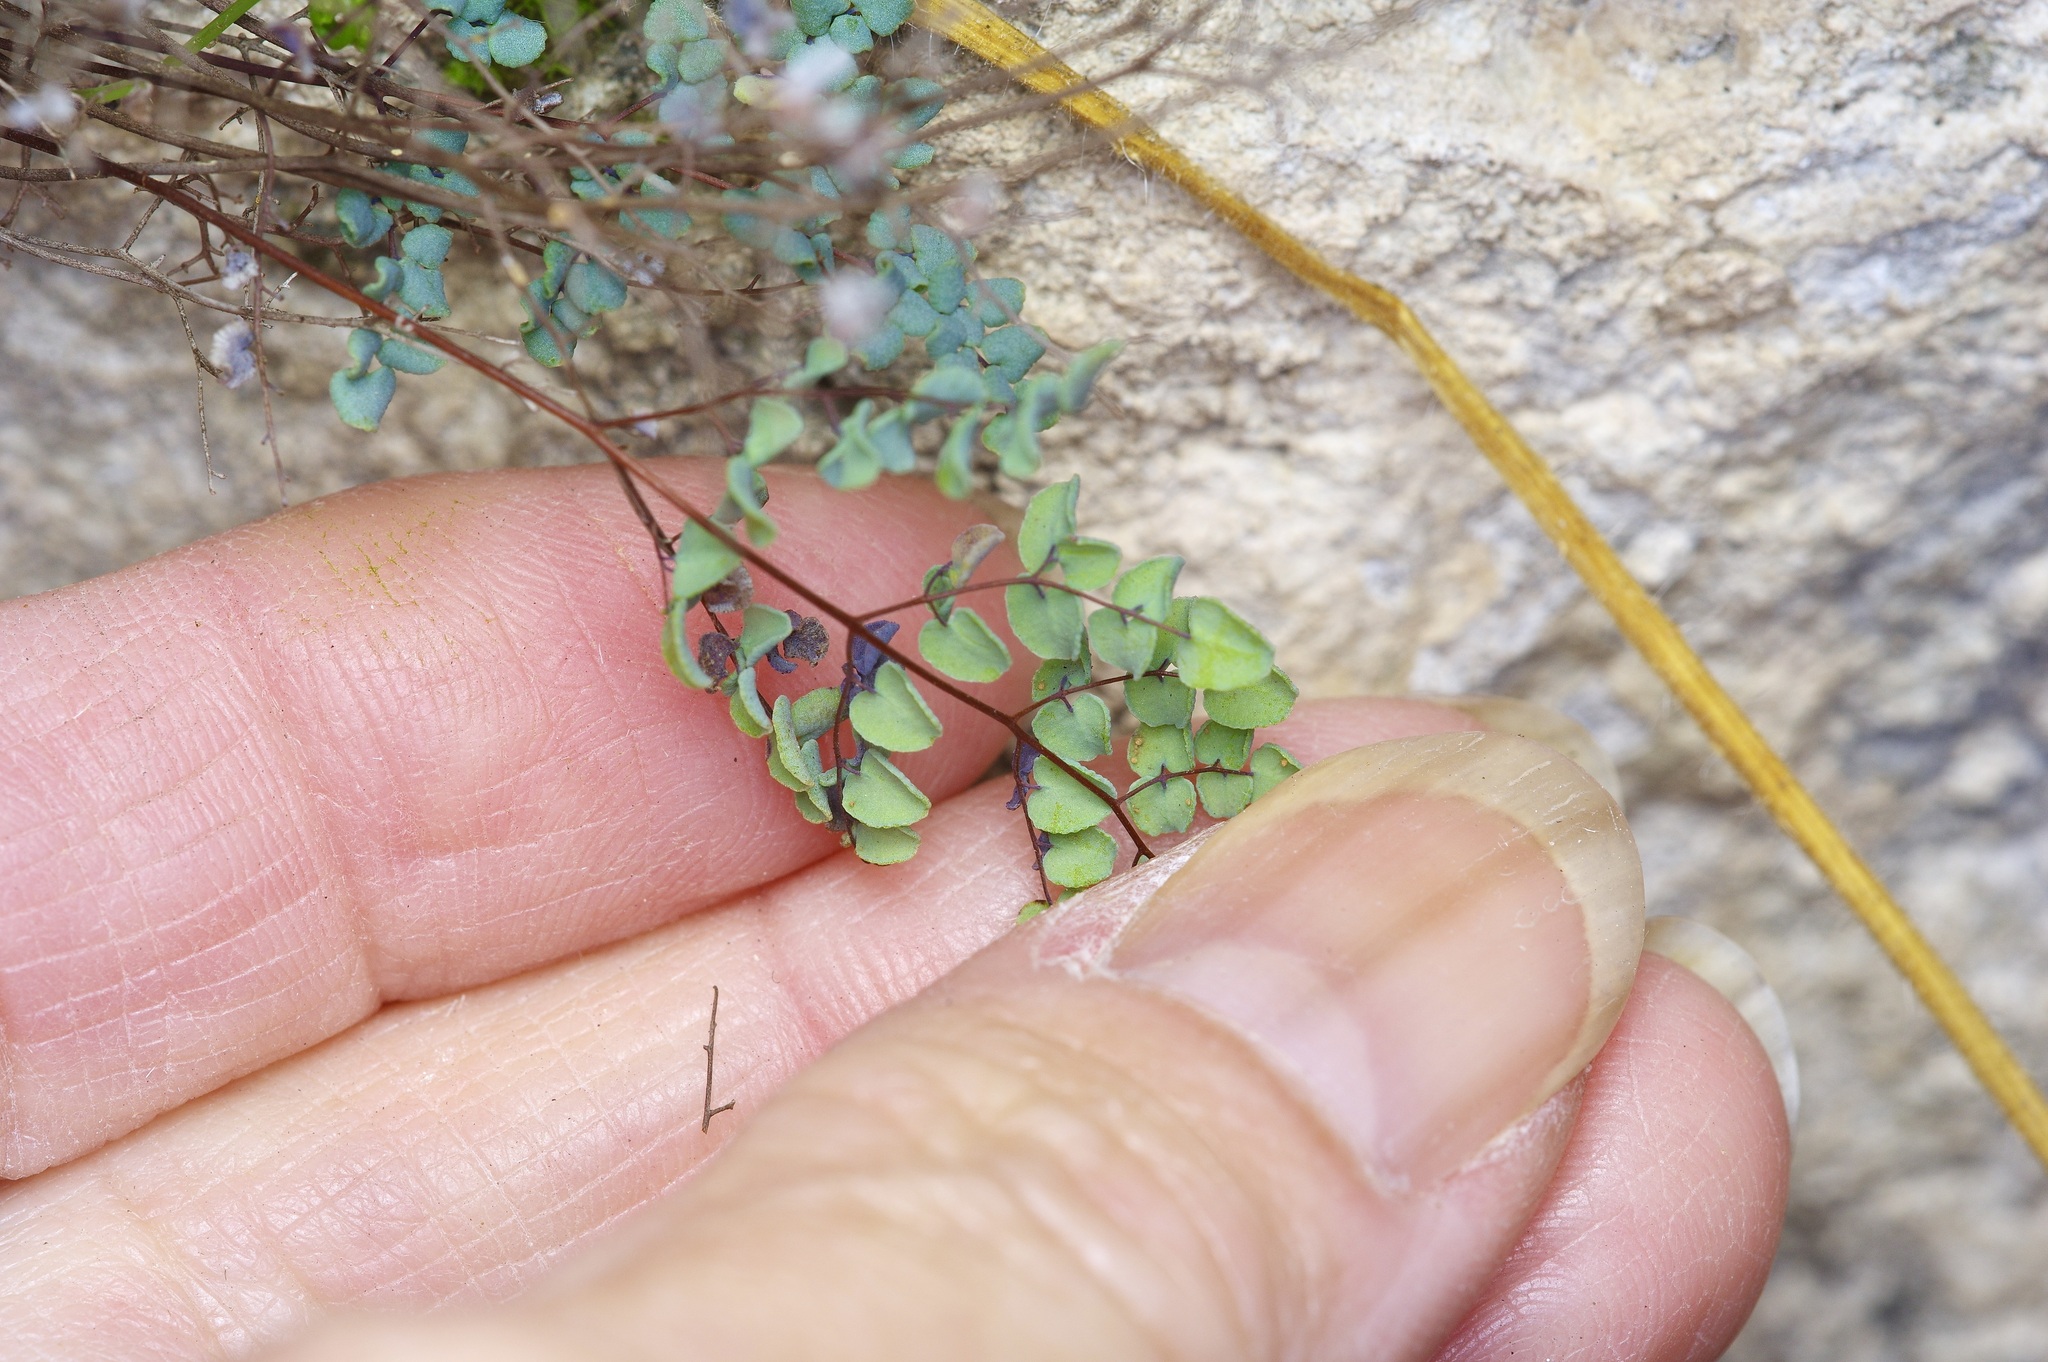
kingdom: Plantae
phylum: Tracheophyta
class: Polypodiopsida
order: Polypodiales
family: Pteridaceae
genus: Argyrochosma
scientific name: Argyrochosma microphylla
